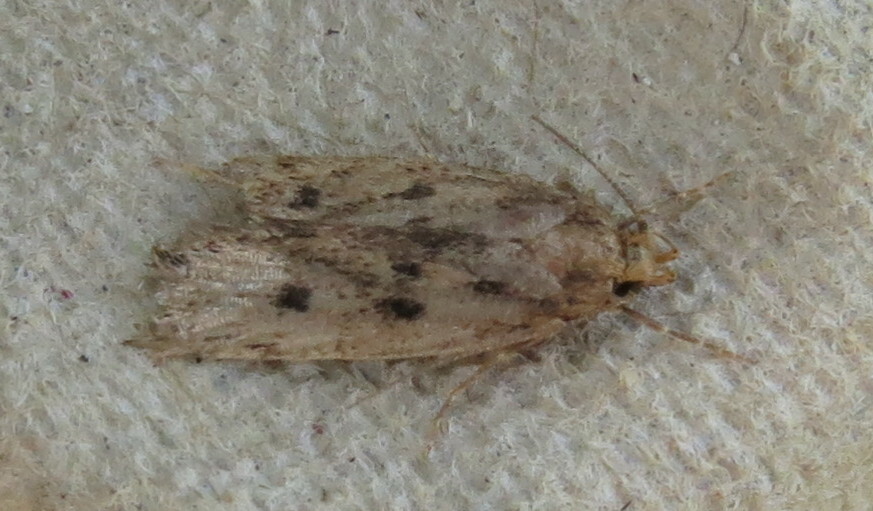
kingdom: Animalia
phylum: Arthropoda
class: Insecta
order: Lepidoptera
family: Oecophoridae
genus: Hofmannophila
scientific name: Hofmannophila pseudospretella
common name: Brown house moth
